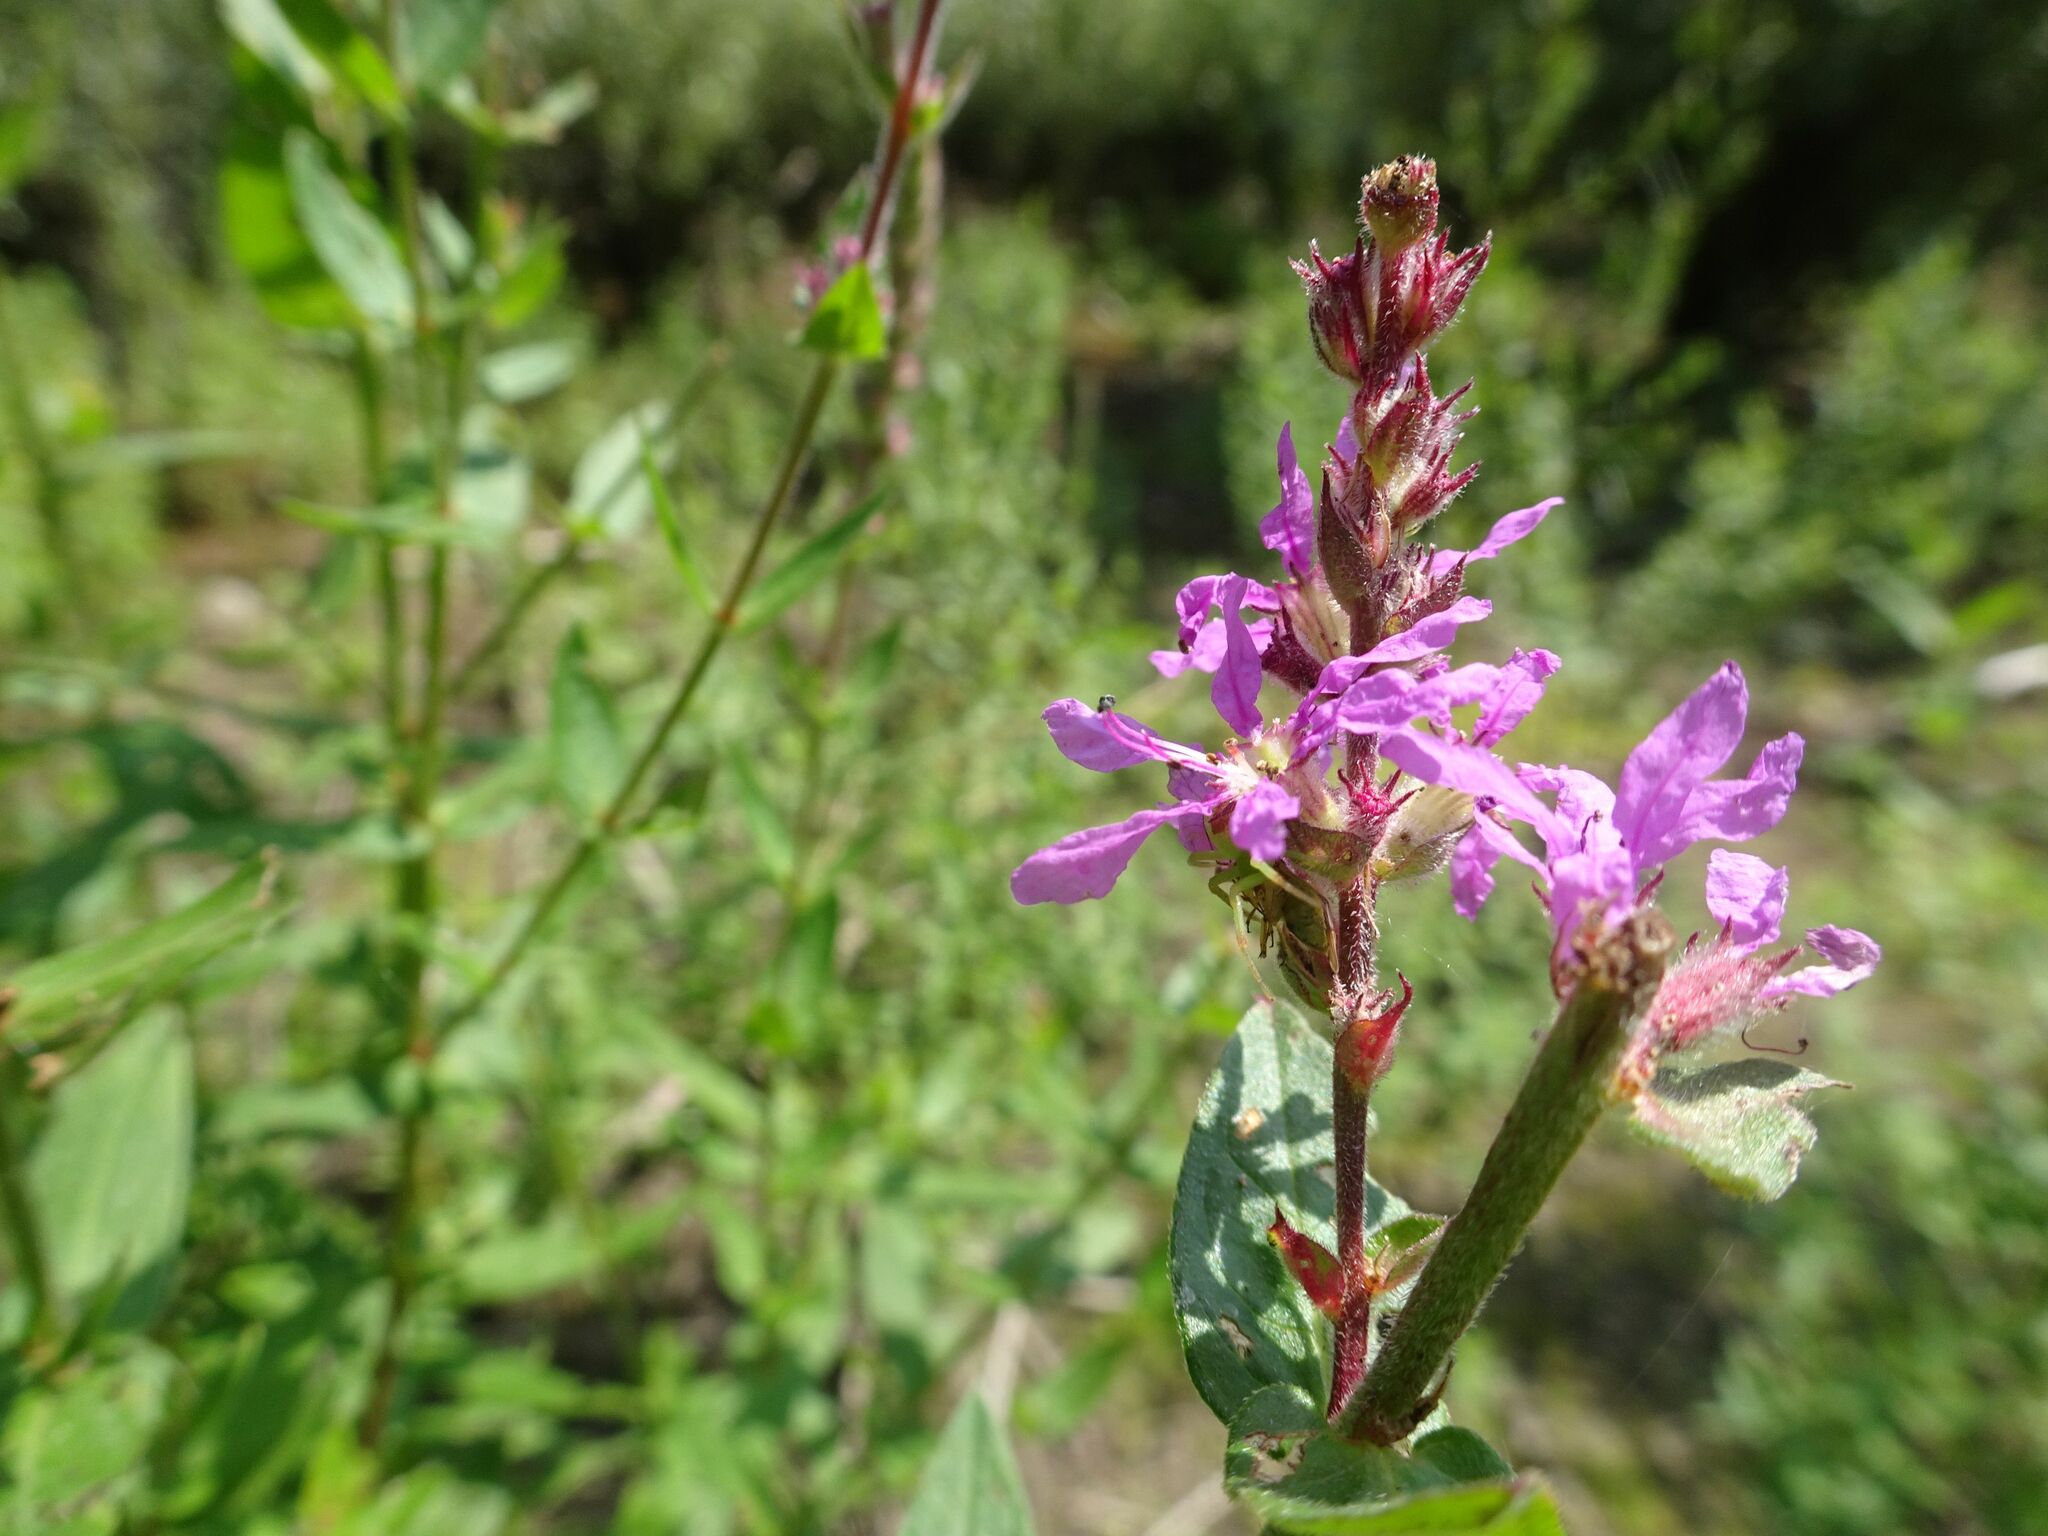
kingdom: Plantae
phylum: Tracheophyta
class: Magnoliopsida
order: Myrtales
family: Lythraceae
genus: Lythrum
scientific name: Lythrum salicaria
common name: Purple loosestrife
